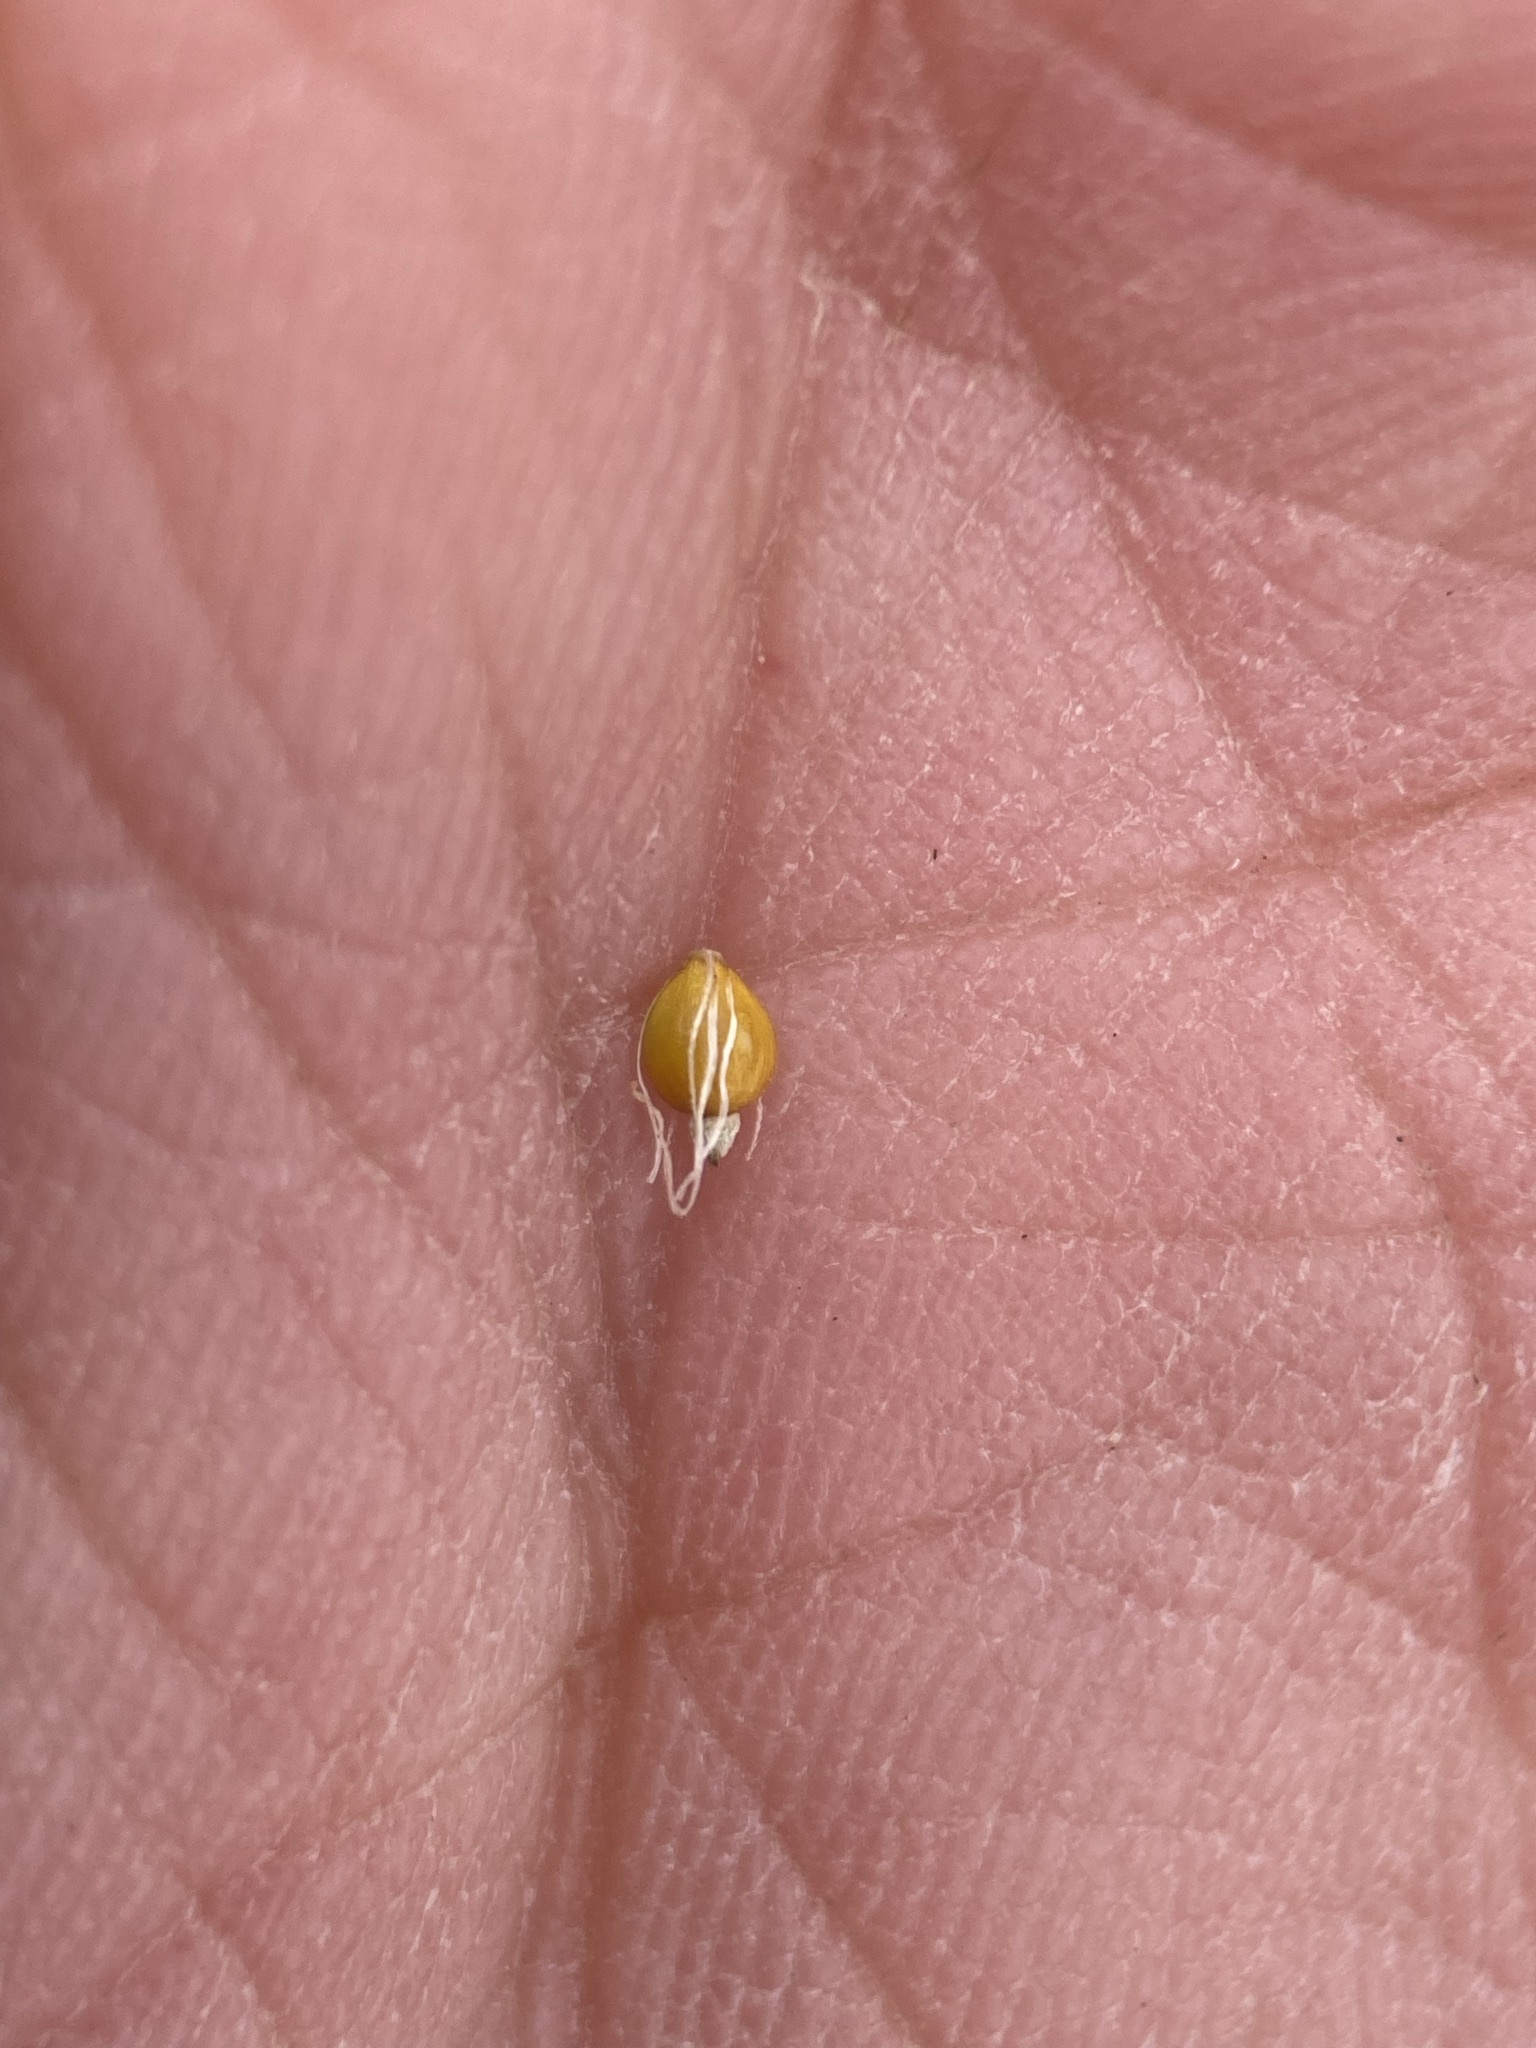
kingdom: Plantae
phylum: Tracheophyta
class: Liliopsida
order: Poales
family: Cyperaceae
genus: Eleocharis
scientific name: Eleocharis palustris
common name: Common spike-rush
